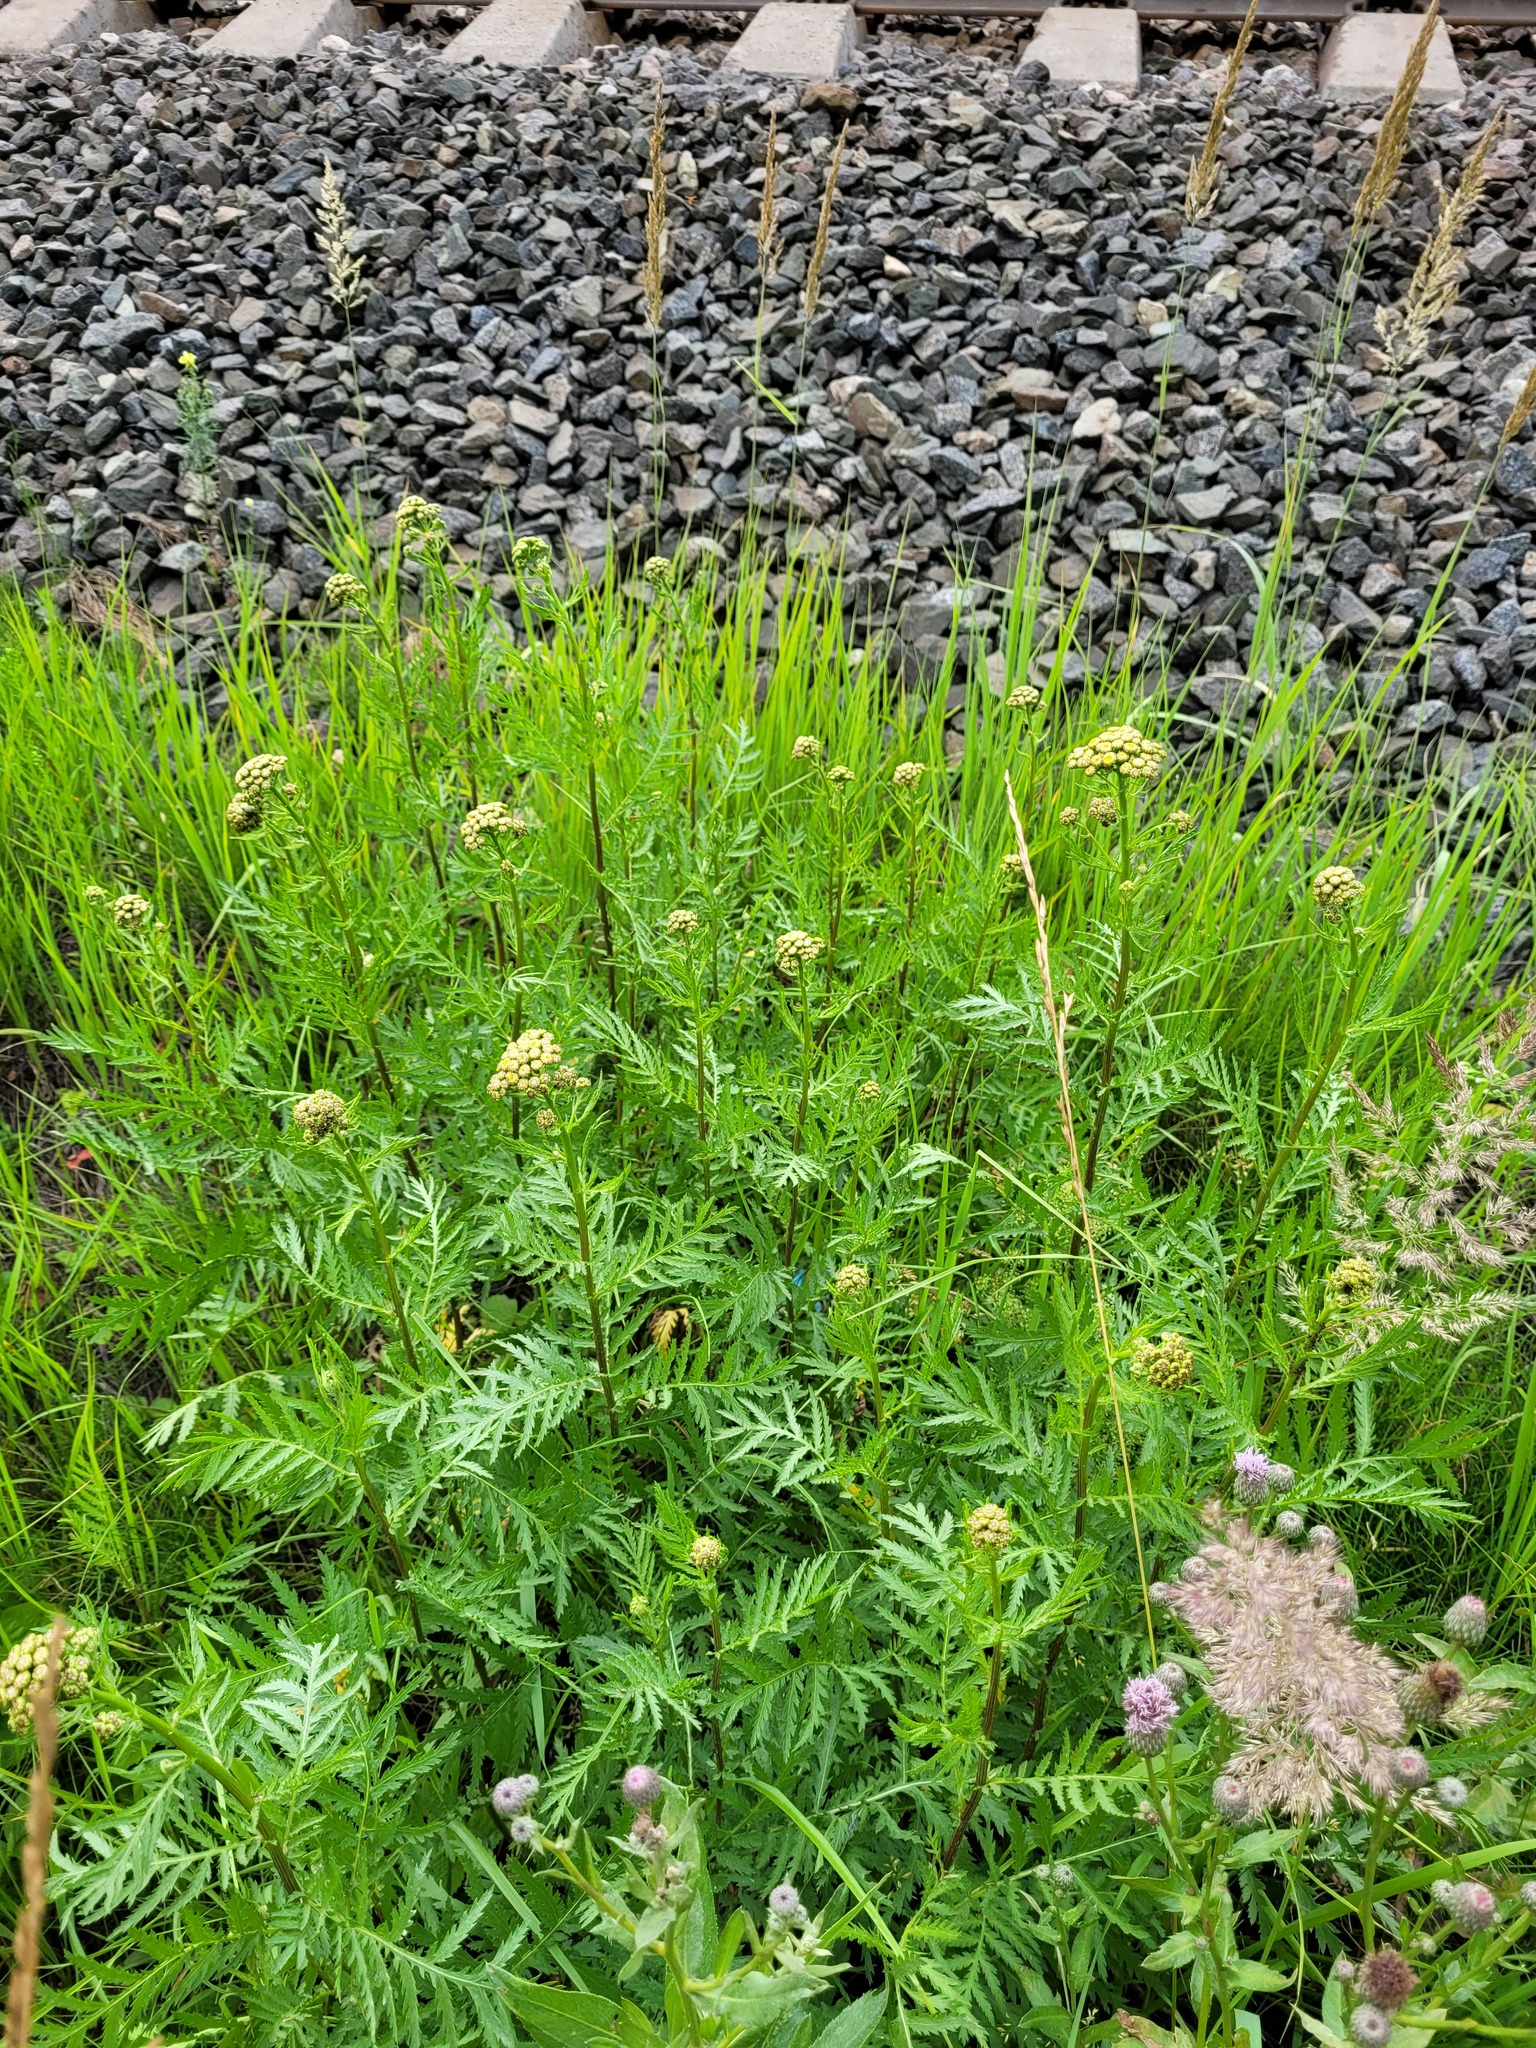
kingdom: Plantae
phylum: Tracheophyta
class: Magnoliopsida
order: Asterales
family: Asteraceae
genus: Tanacetum
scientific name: Tanacetum vulgare
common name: Common tansy
